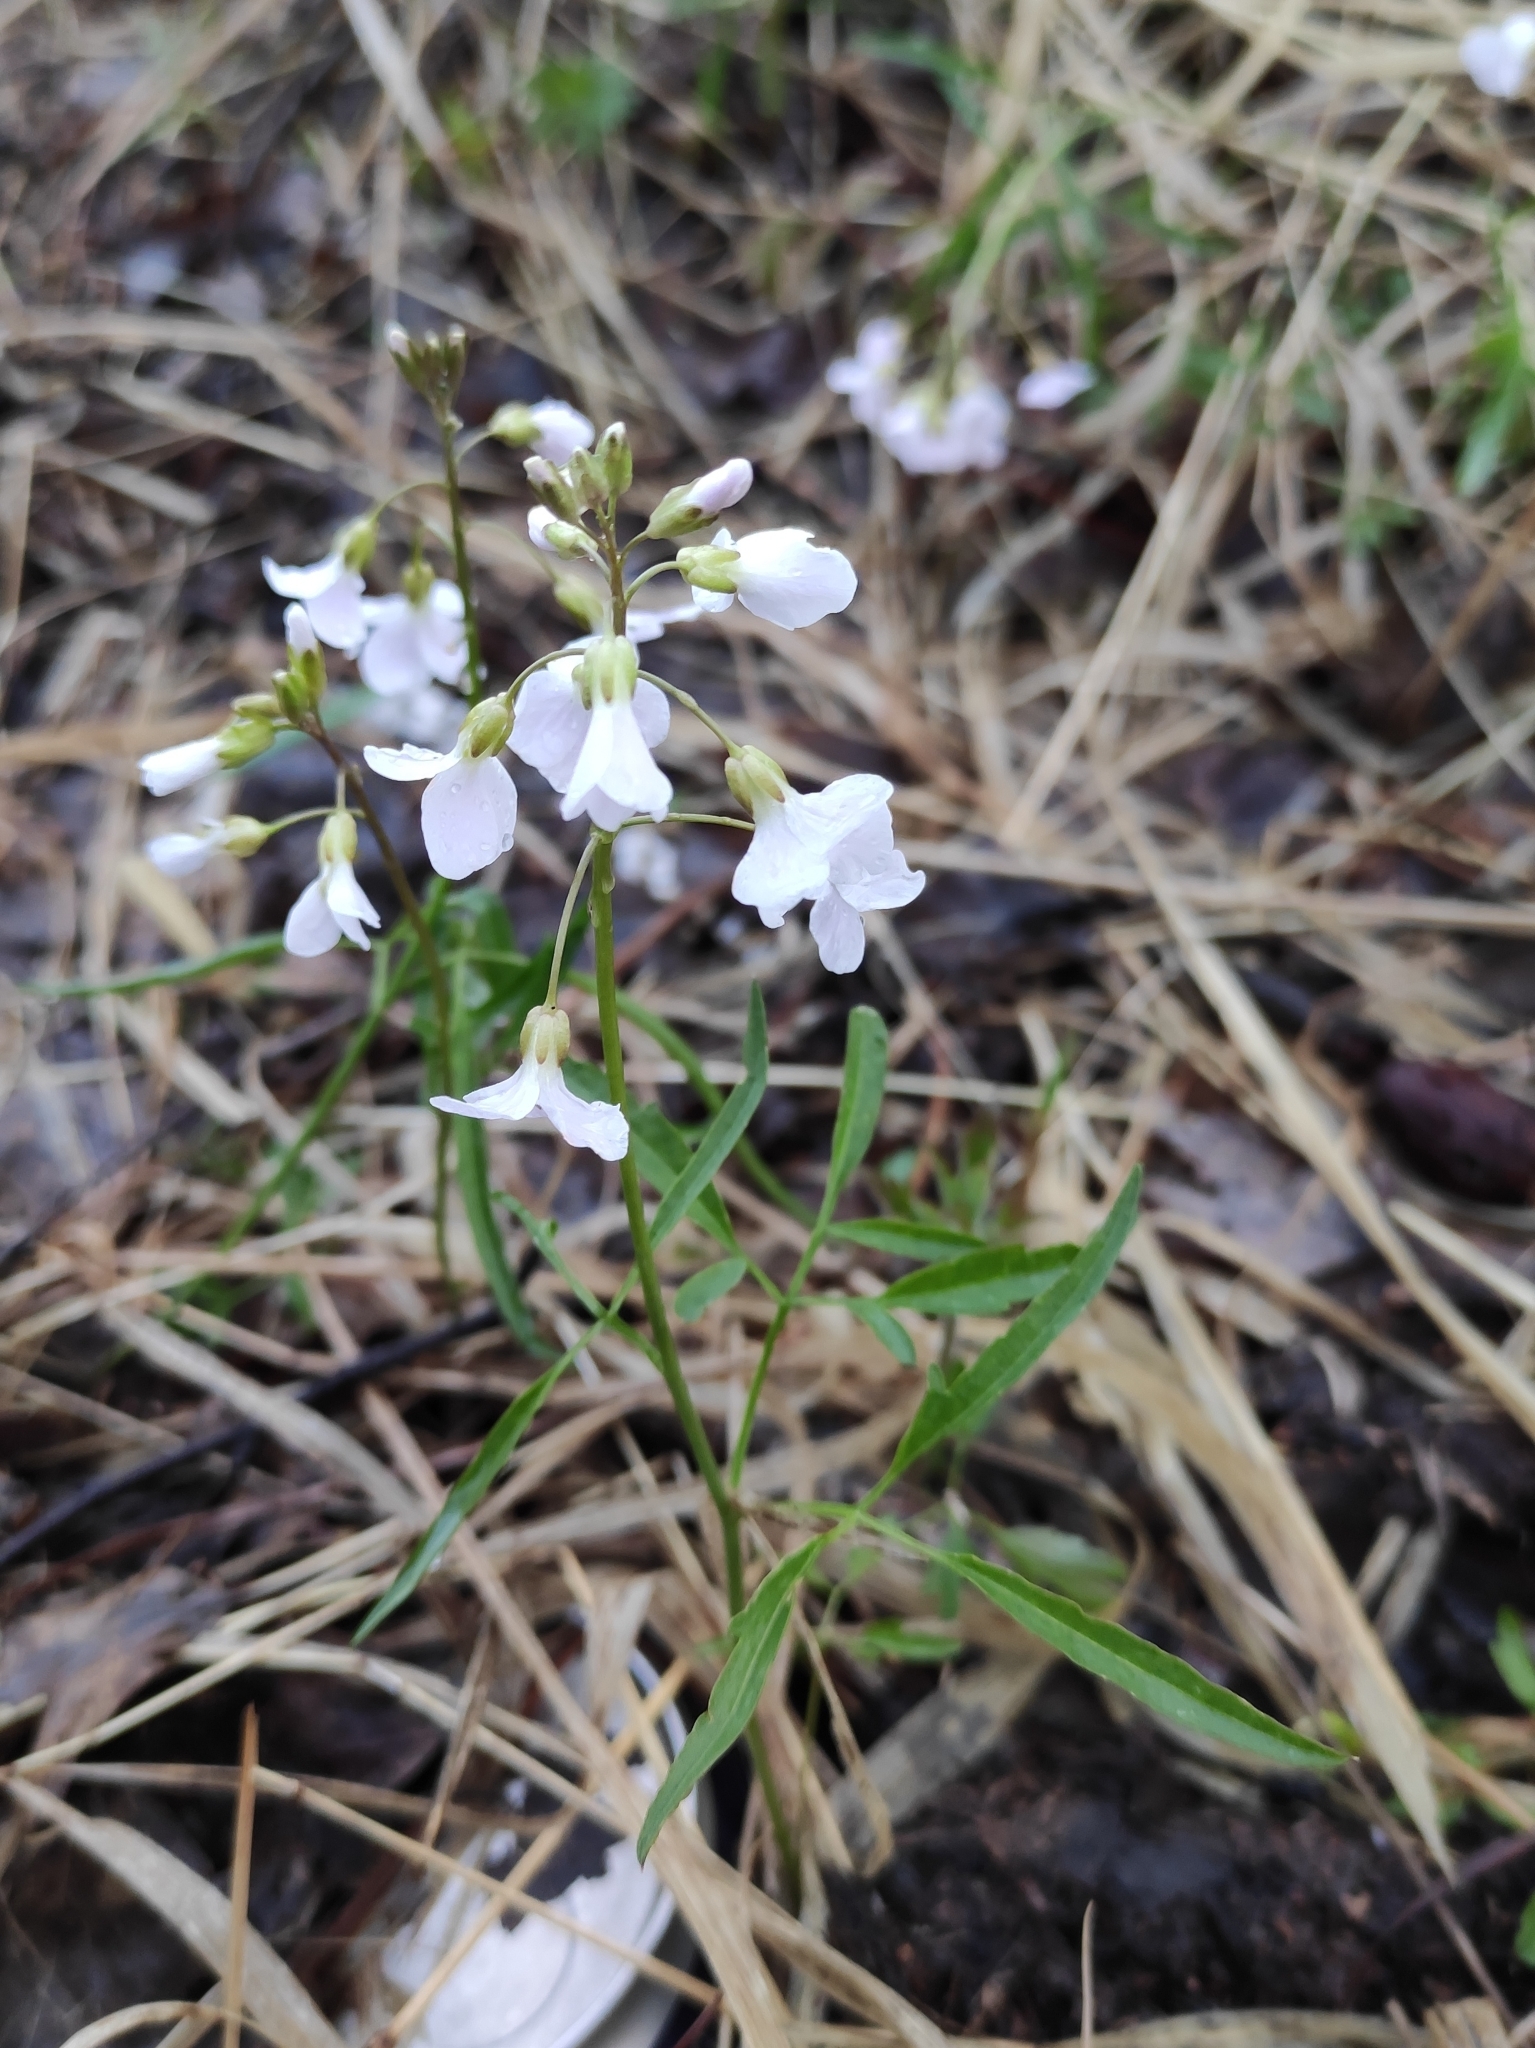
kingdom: Plantae
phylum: Tracheophyta
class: Magnoliopsida
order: Brassicales
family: Brassicaceae
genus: Cardamine
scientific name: Cardamine trifida
